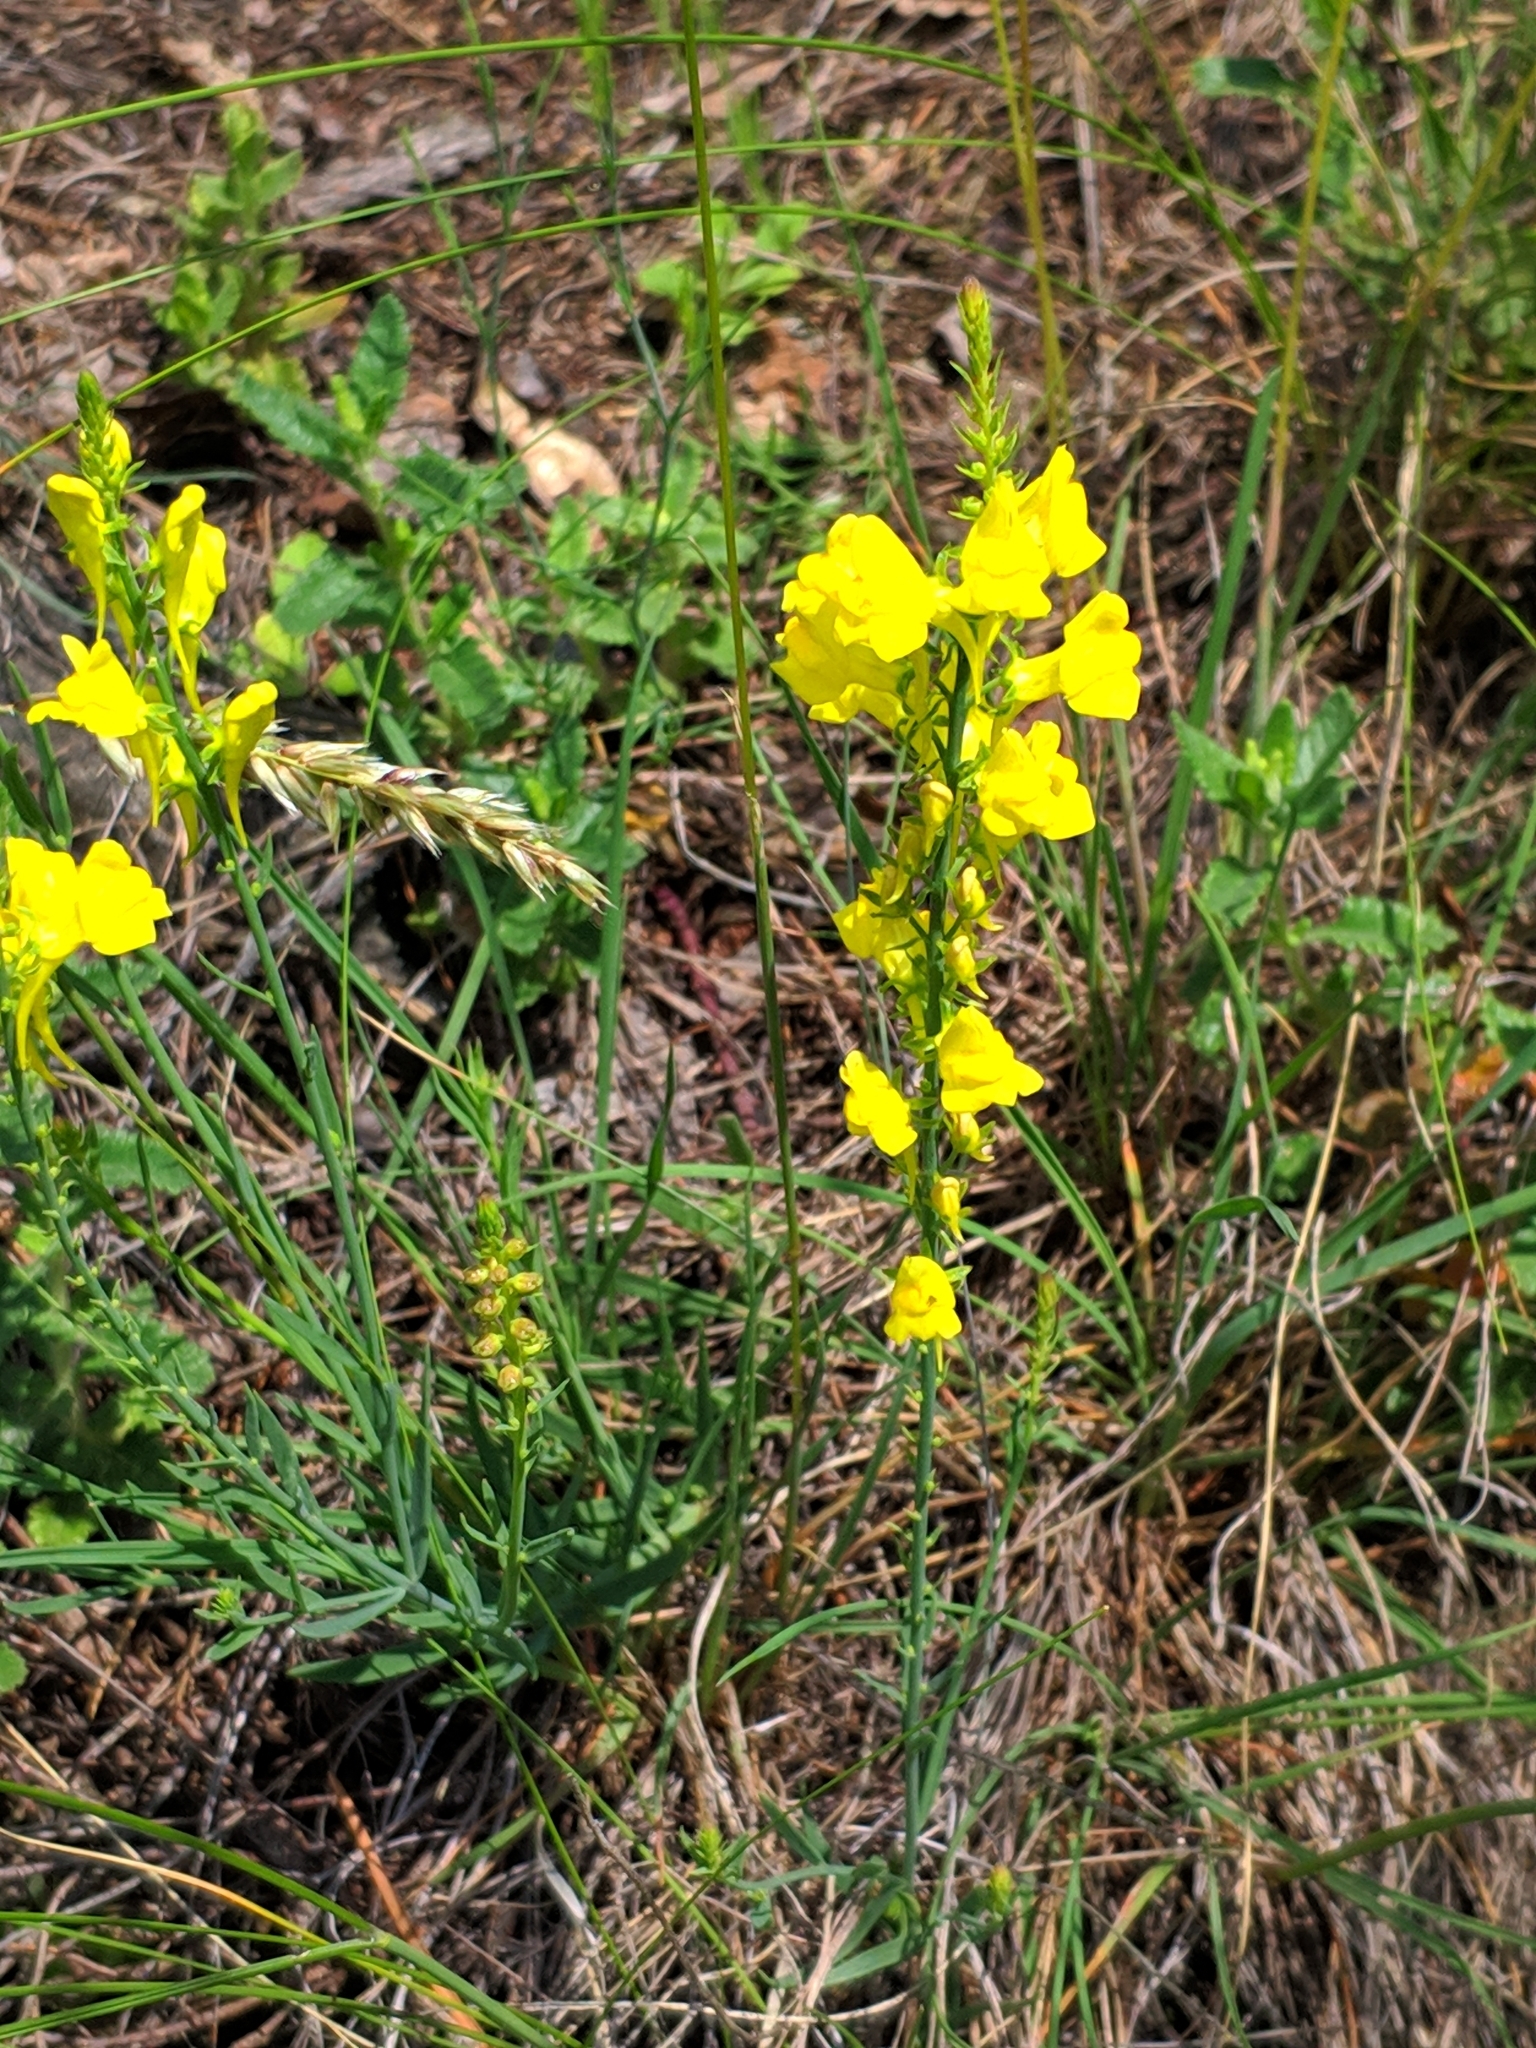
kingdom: Plantae
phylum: Tracheophyta
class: Magnoliopsida
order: Lamiales
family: Plantaginaceae
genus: Linaria
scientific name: Linaria angustissima
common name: Italian toadflax
